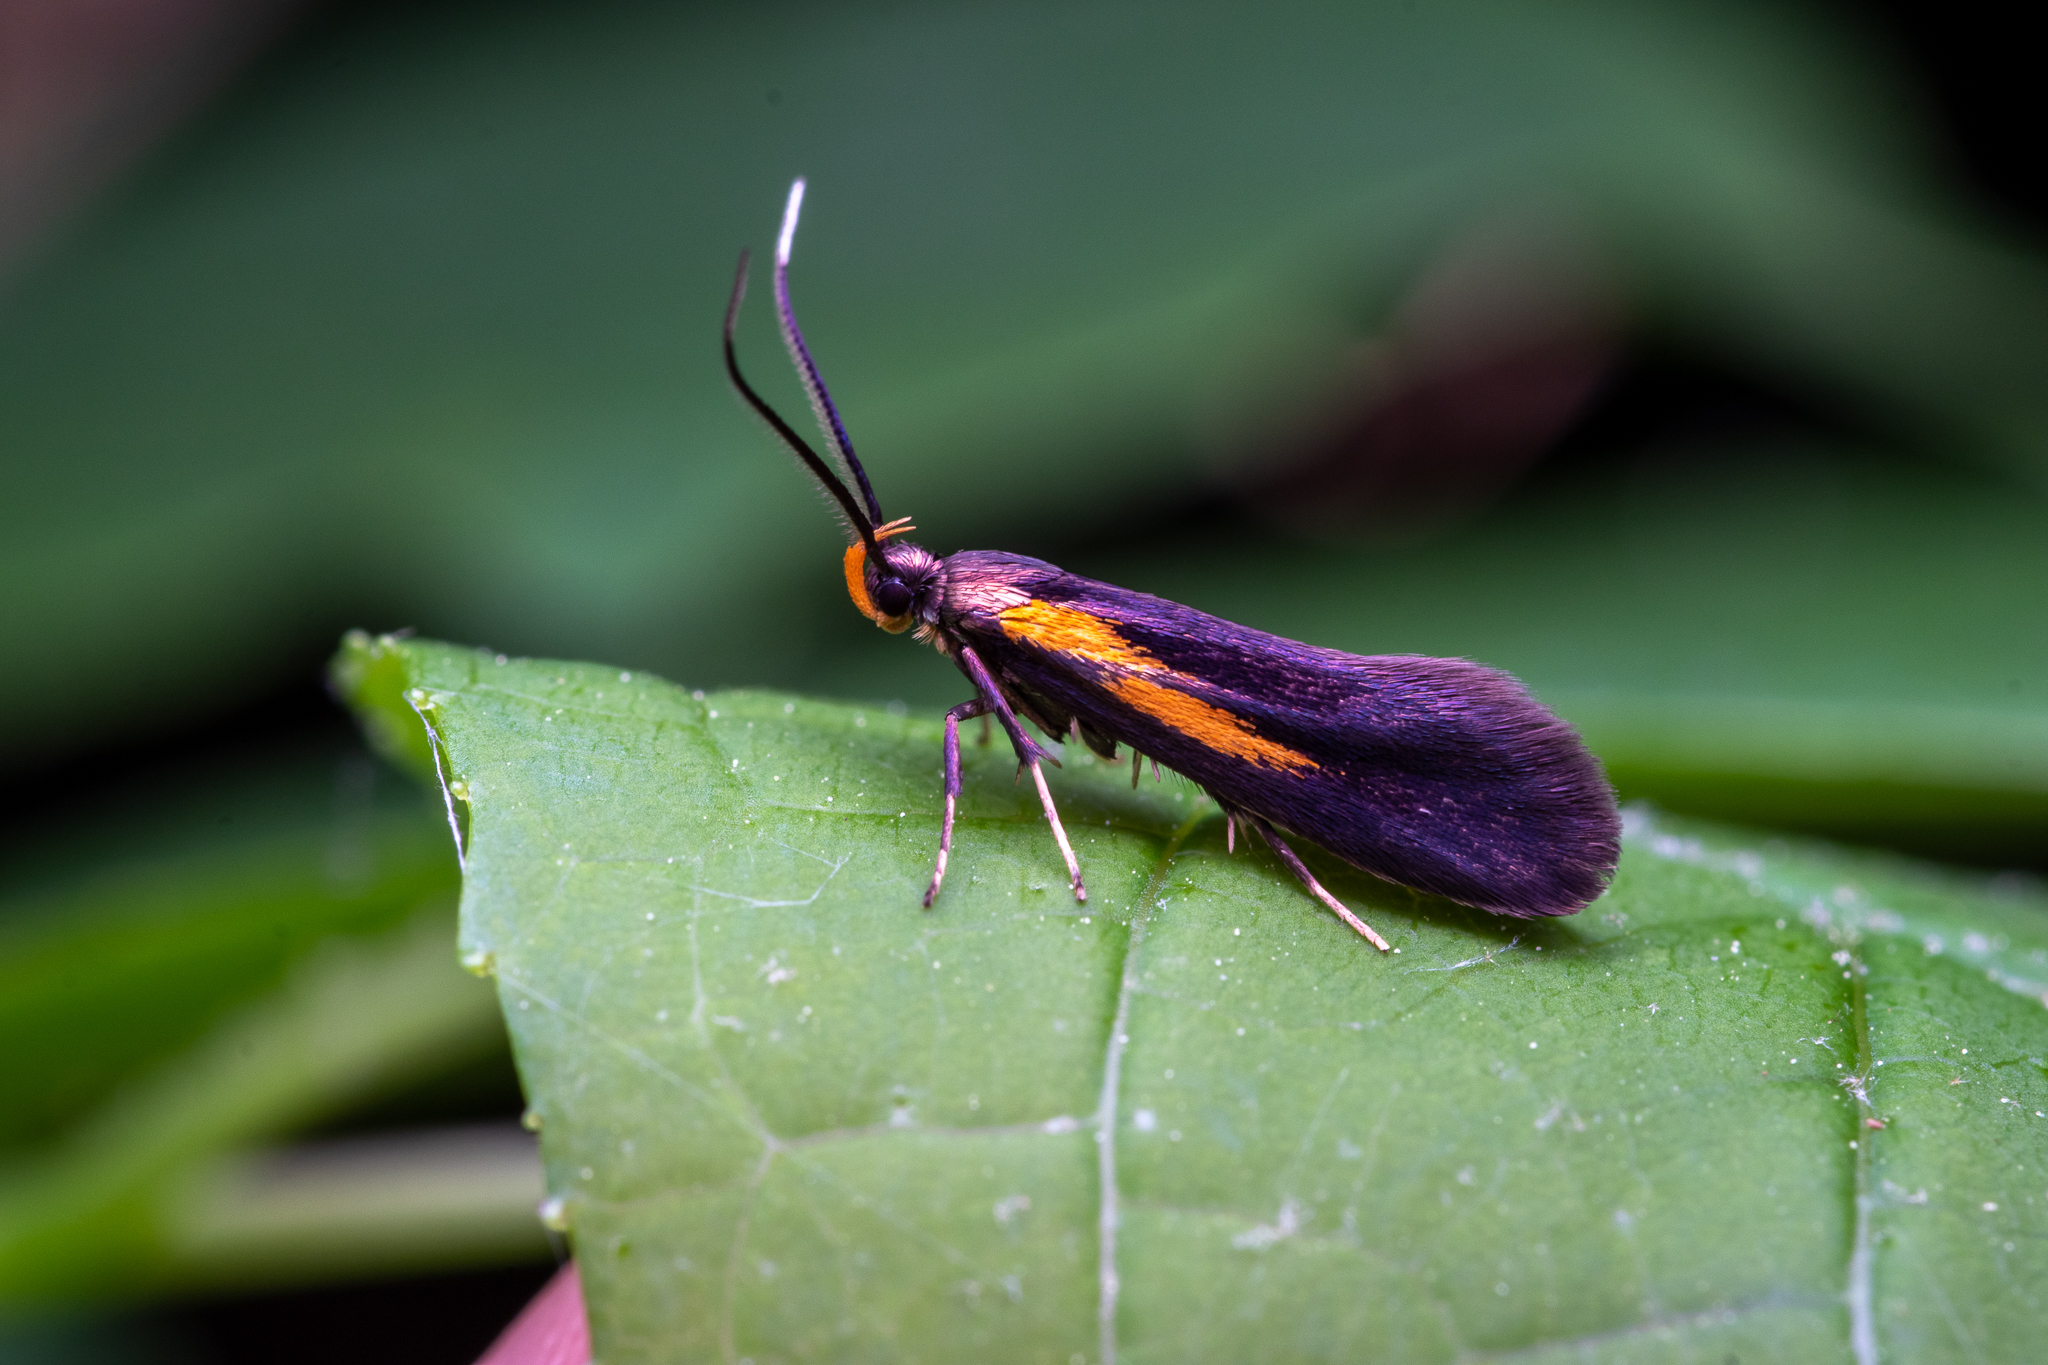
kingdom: Animalia
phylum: Arthropoda
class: Insecta
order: Lepidoptera
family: Oecophoridae
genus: Mathildana
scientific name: Mathildana newmanella
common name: Newman's mathildana moth
